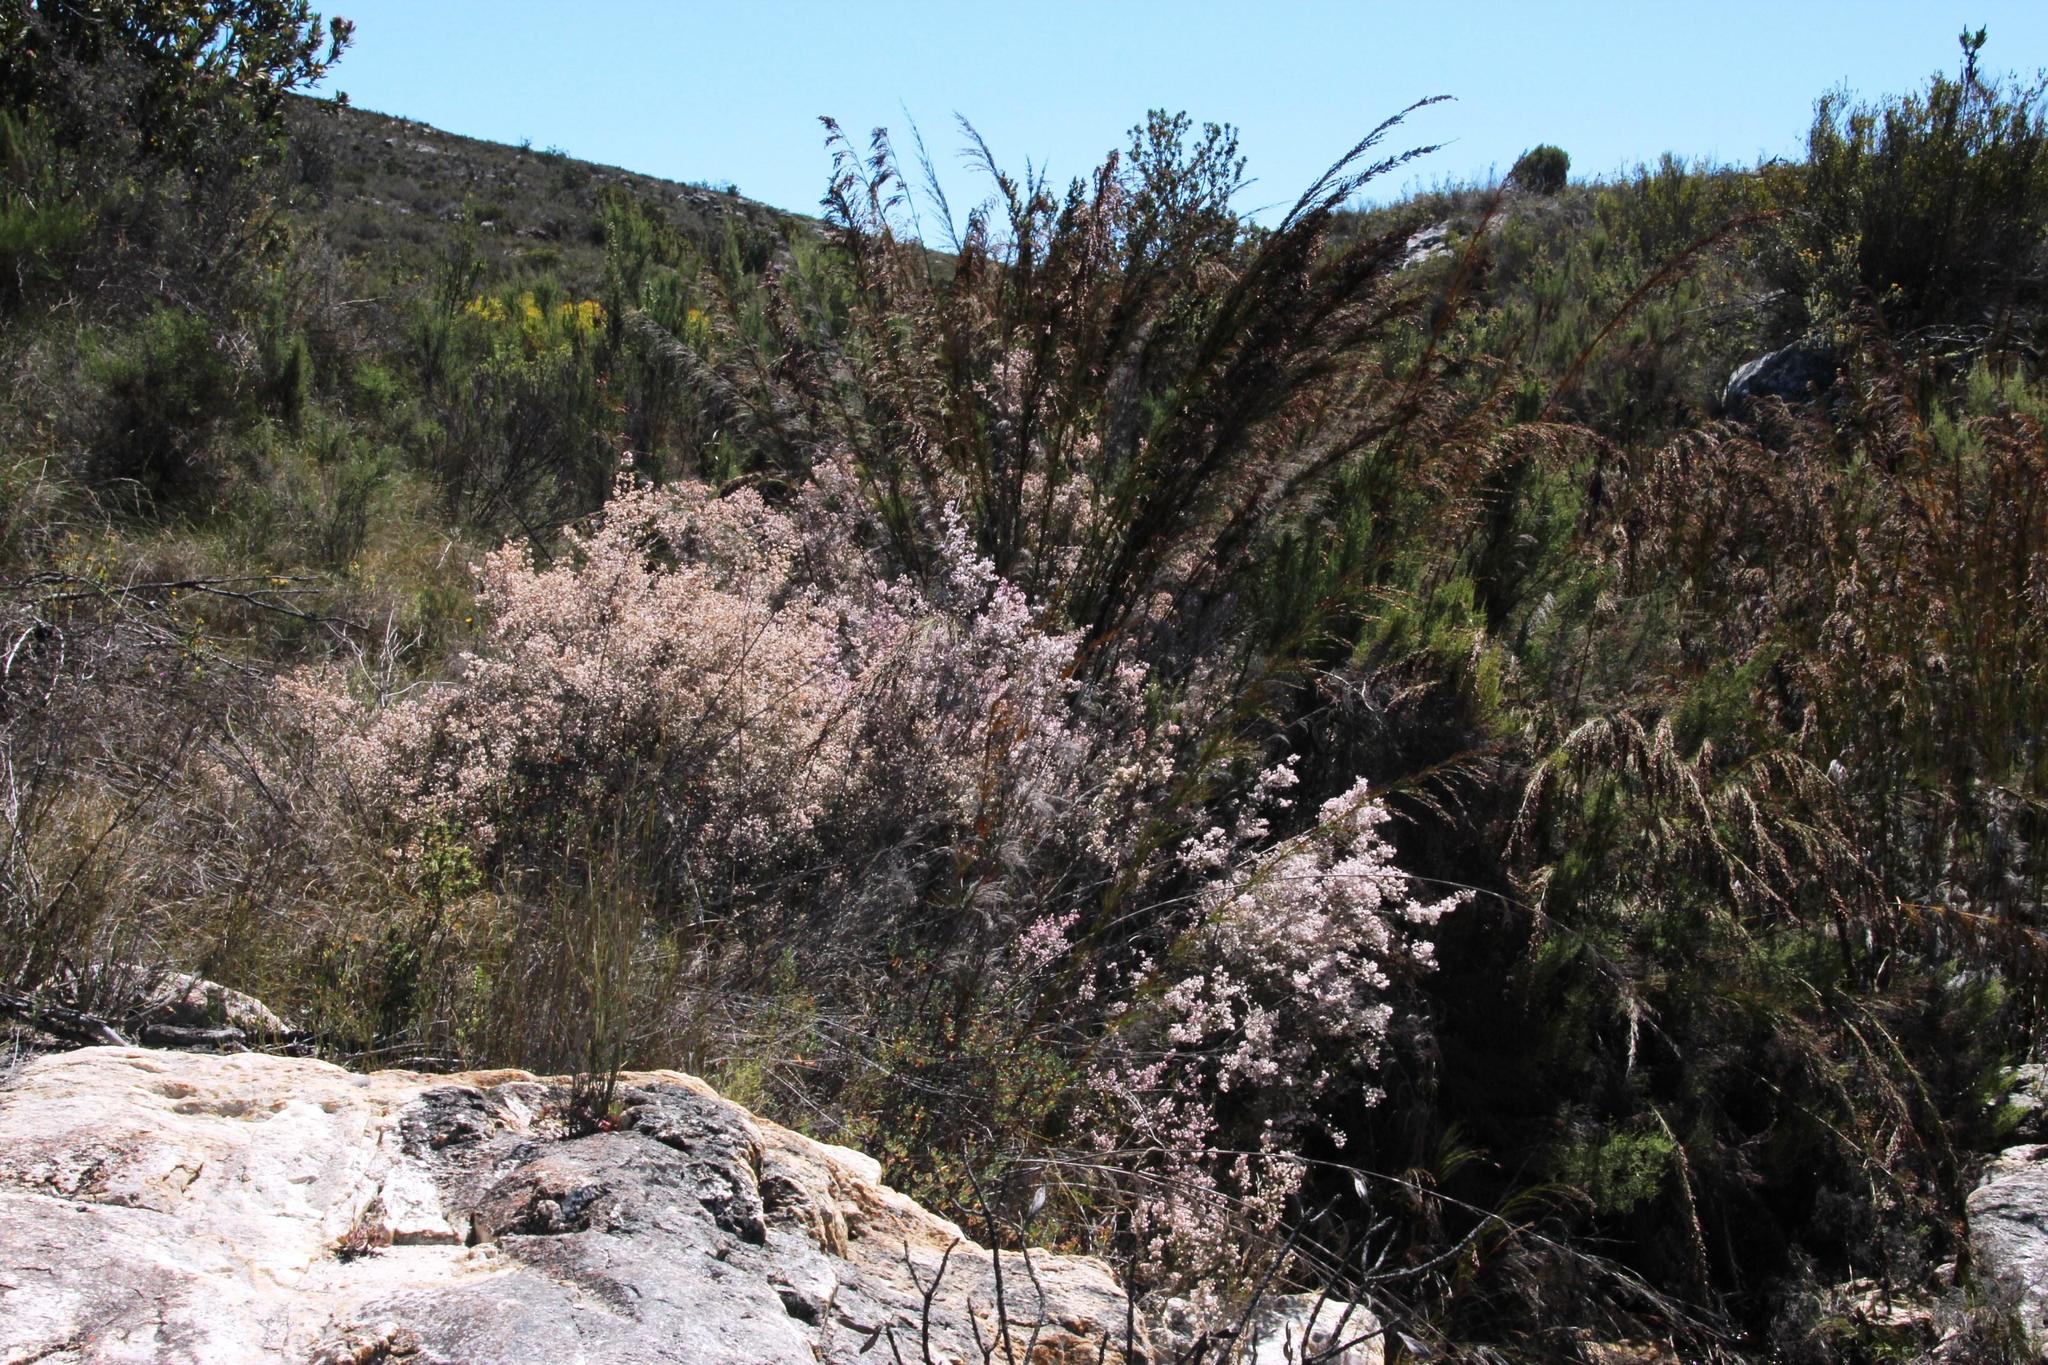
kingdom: Plantae
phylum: Tracheophyta
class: Magnoliopsida
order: Ericales
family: Ericaceae
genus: Erica
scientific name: Erica leptopus
